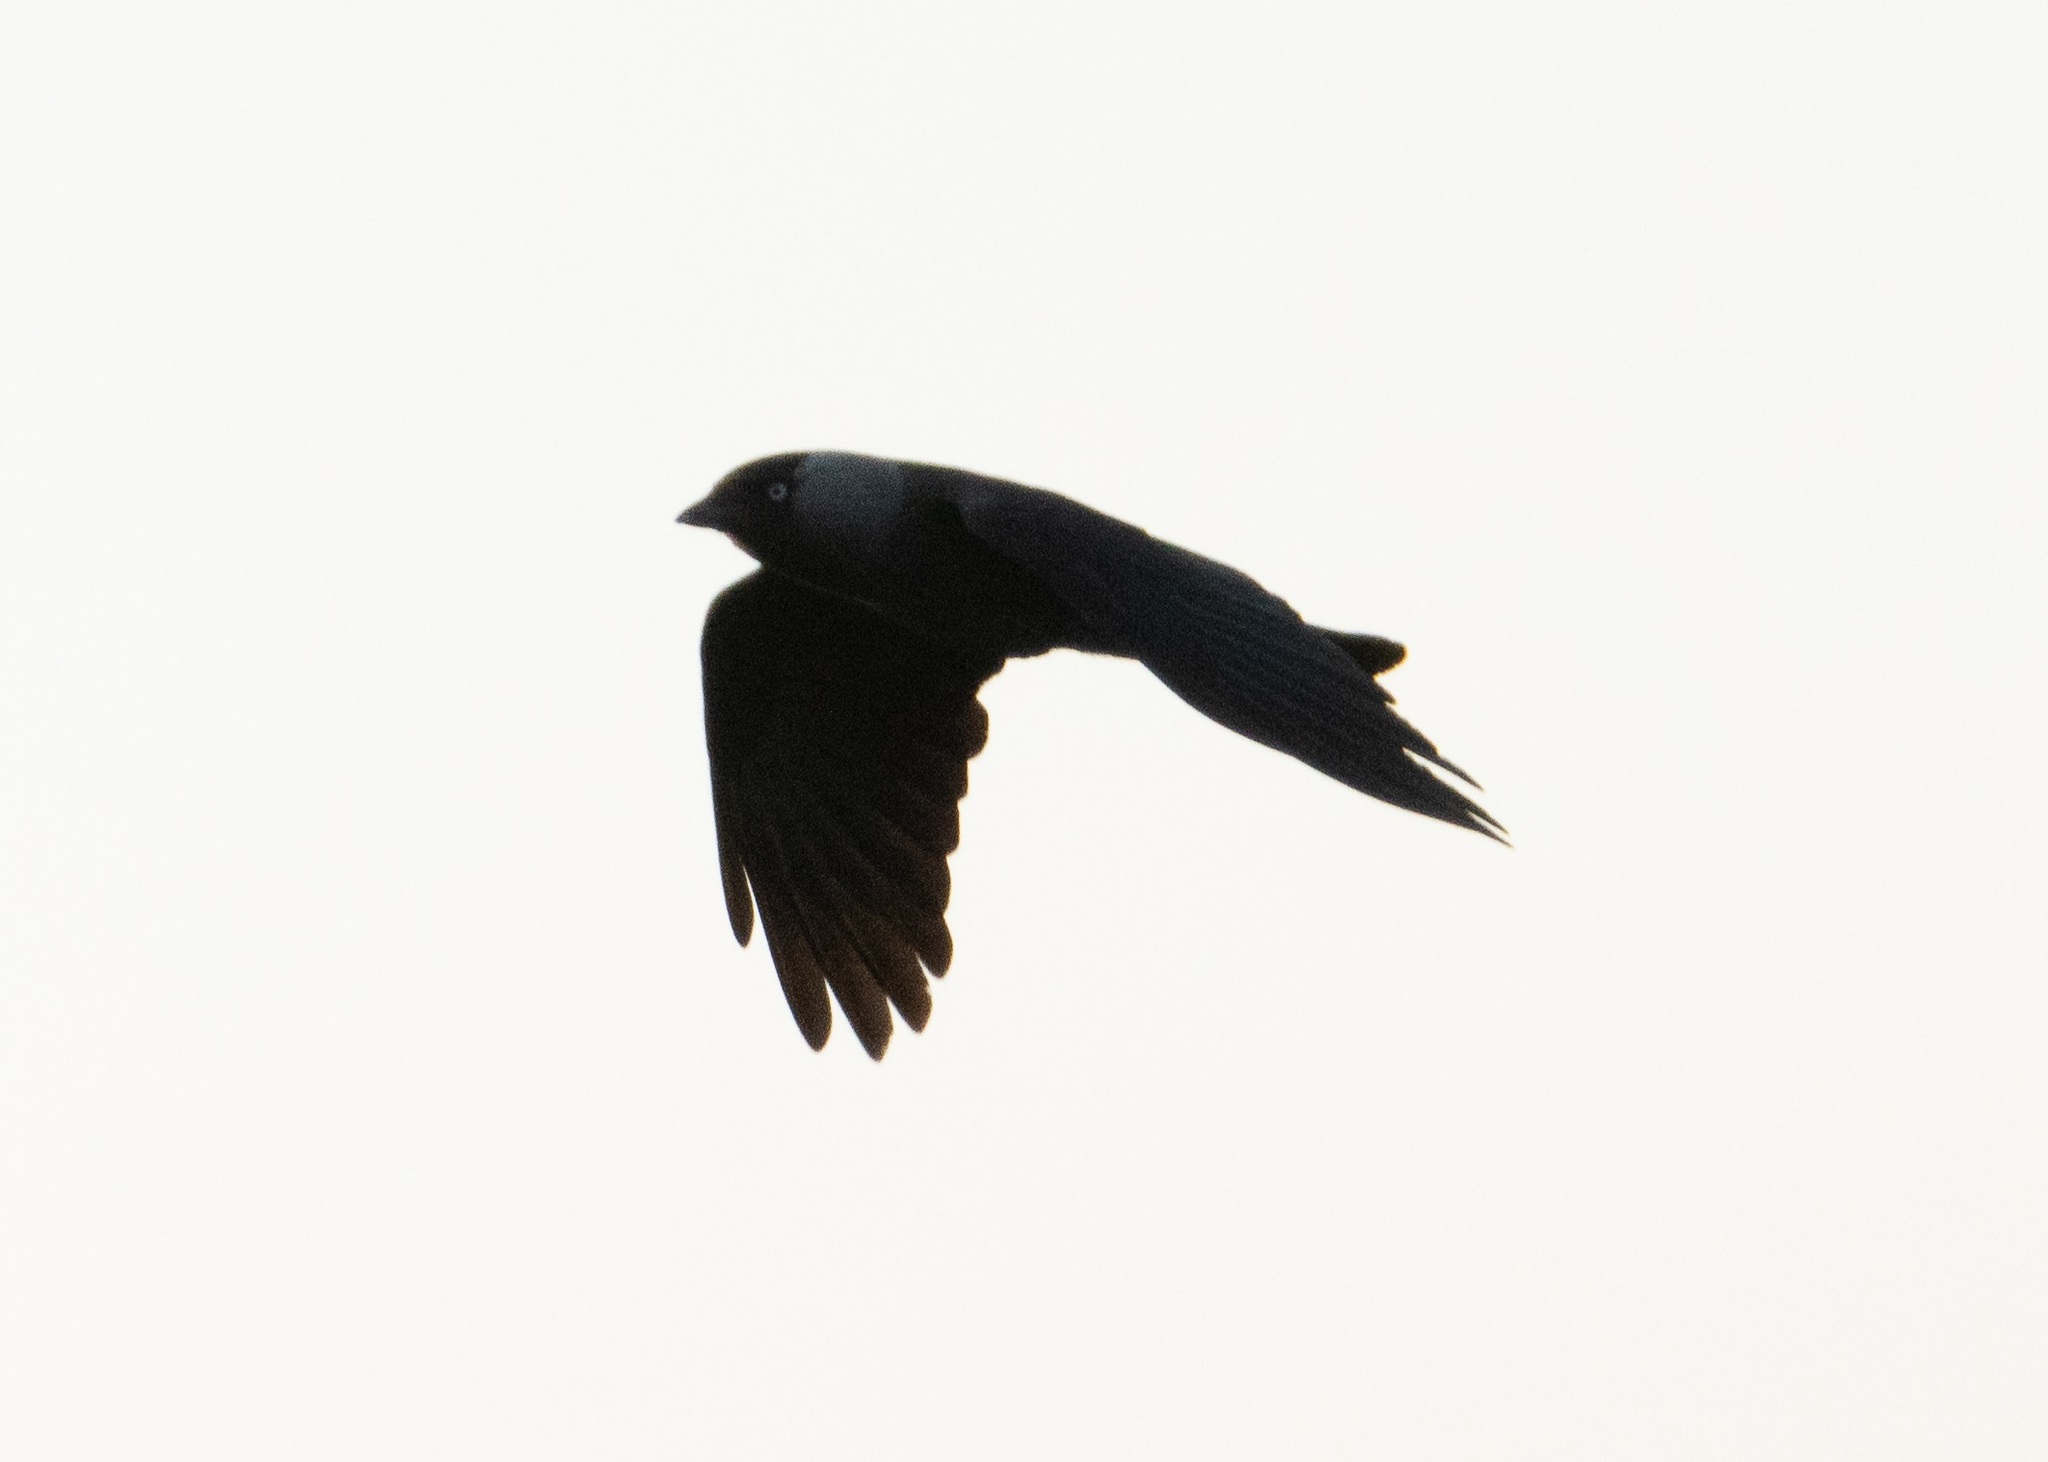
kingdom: Animalia
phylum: Chordata
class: Aves
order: Passeriformes
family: Corvidae
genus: Coloeus
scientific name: Coloeus monedula
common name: Western jackdaw
